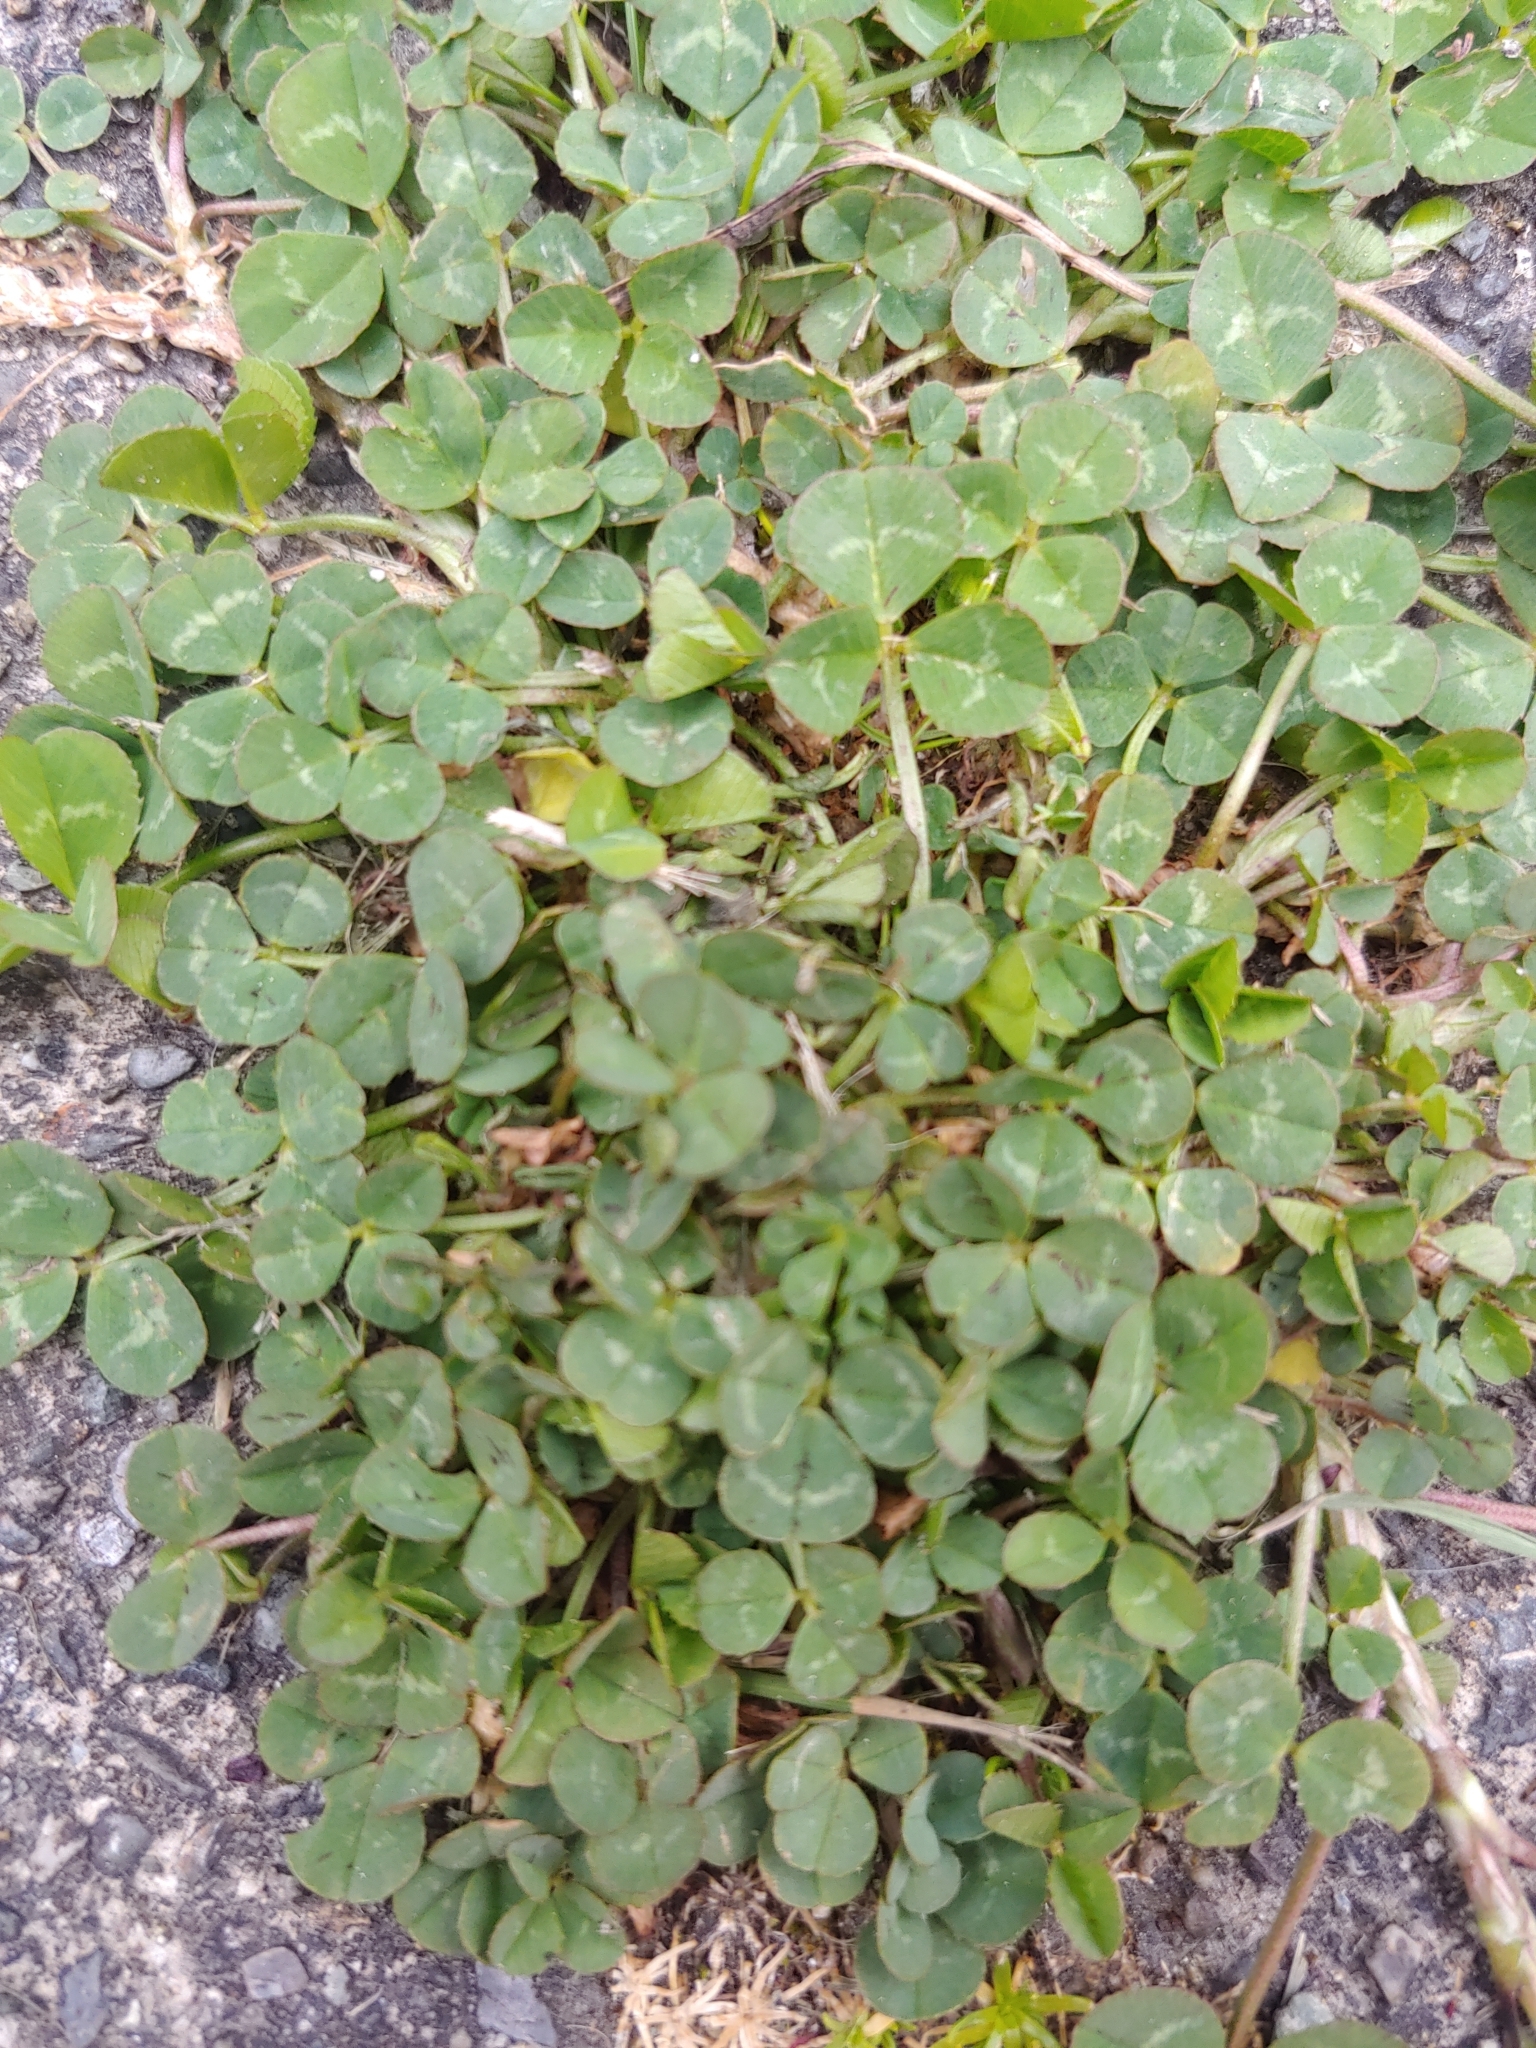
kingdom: Plantae
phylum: Tracheophyta
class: Magnoliopsida
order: Fabales
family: Fabaceae
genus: Trifolium
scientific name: Trifolium repens
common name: White clover
